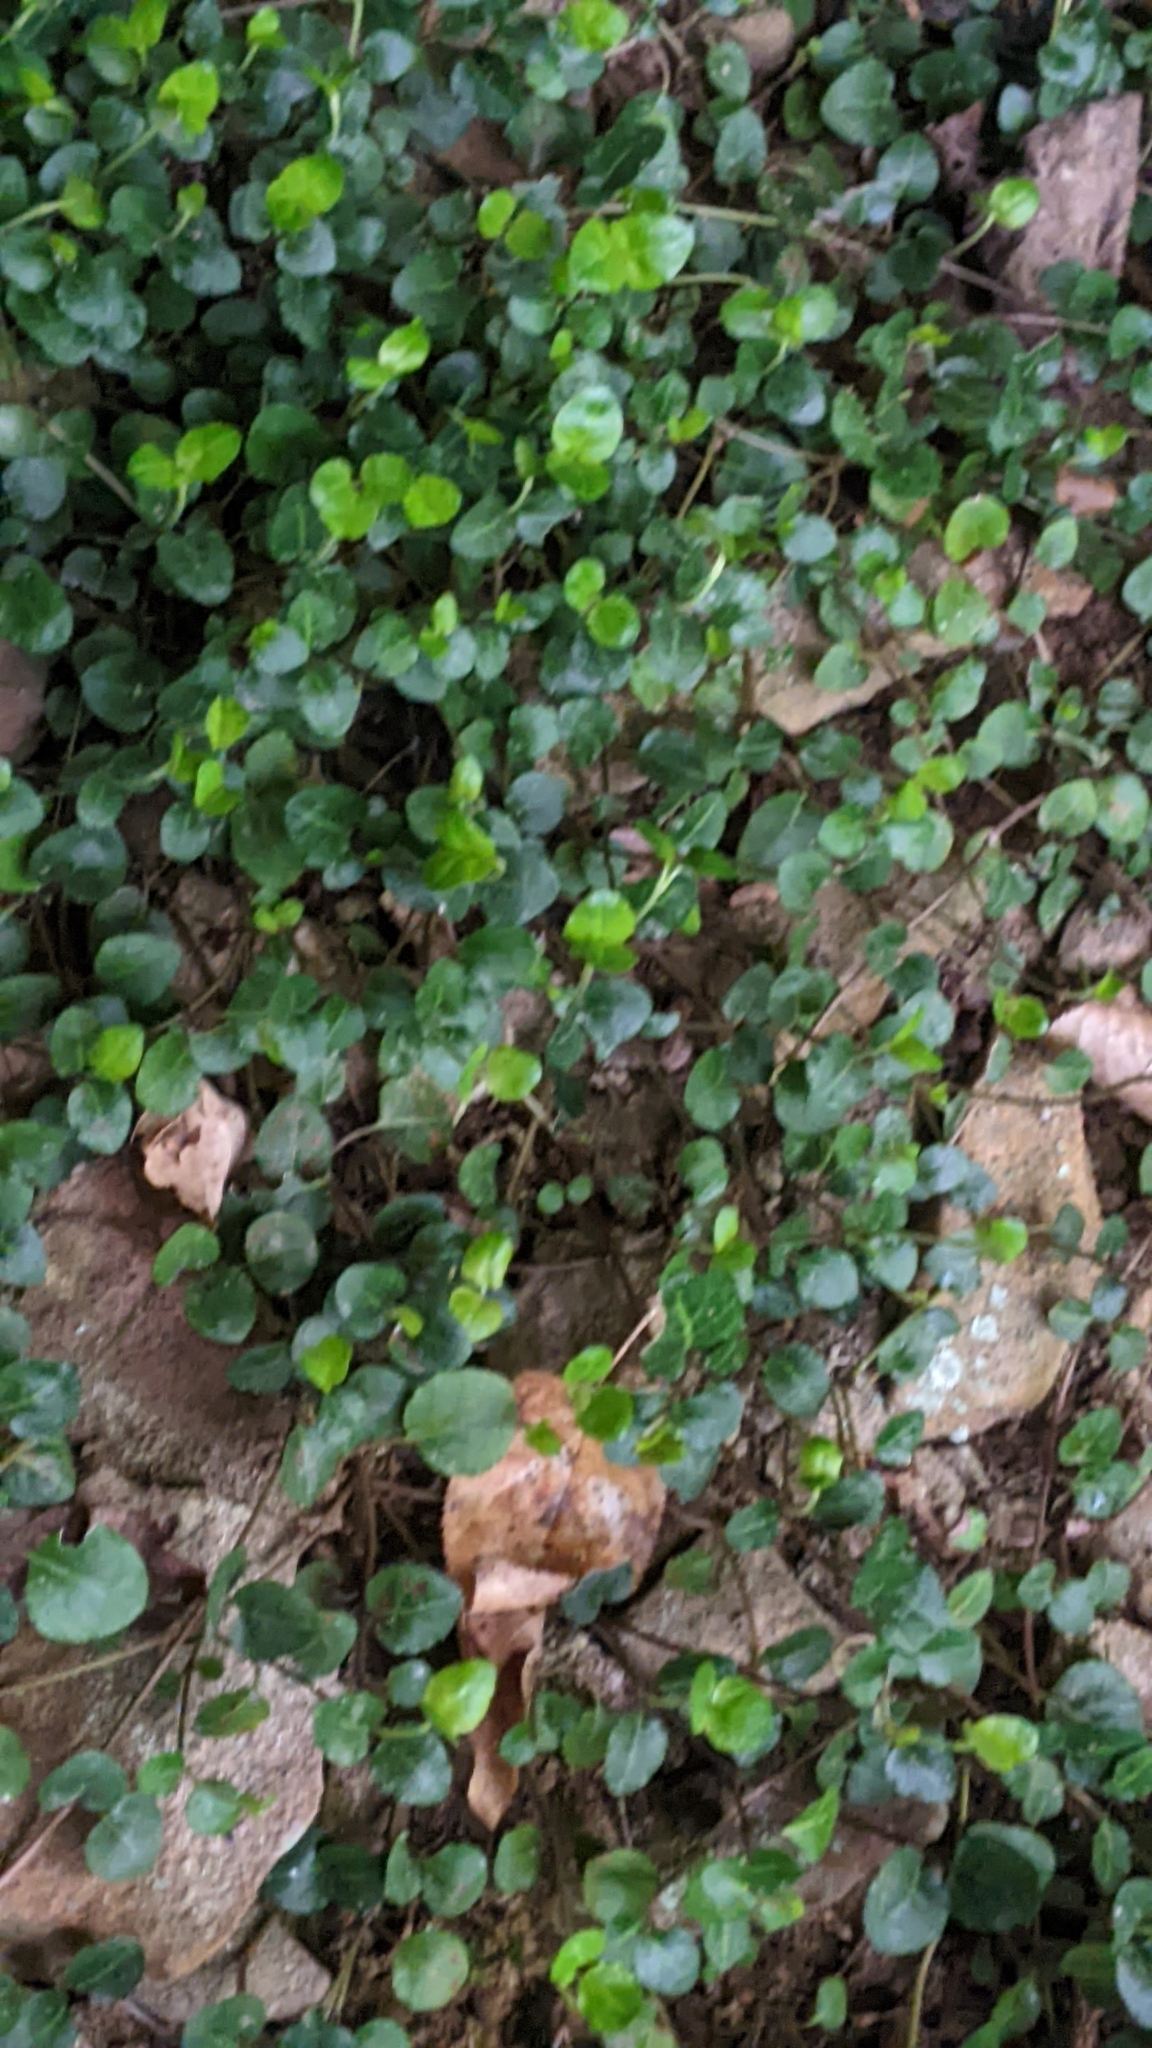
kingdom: Plantae
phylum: Tracheophyta
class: Magnoliopsida
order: Gentianales
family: Rubiaceae
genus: Mitchella
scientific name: Mitchella repens
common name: Partridge-berry
